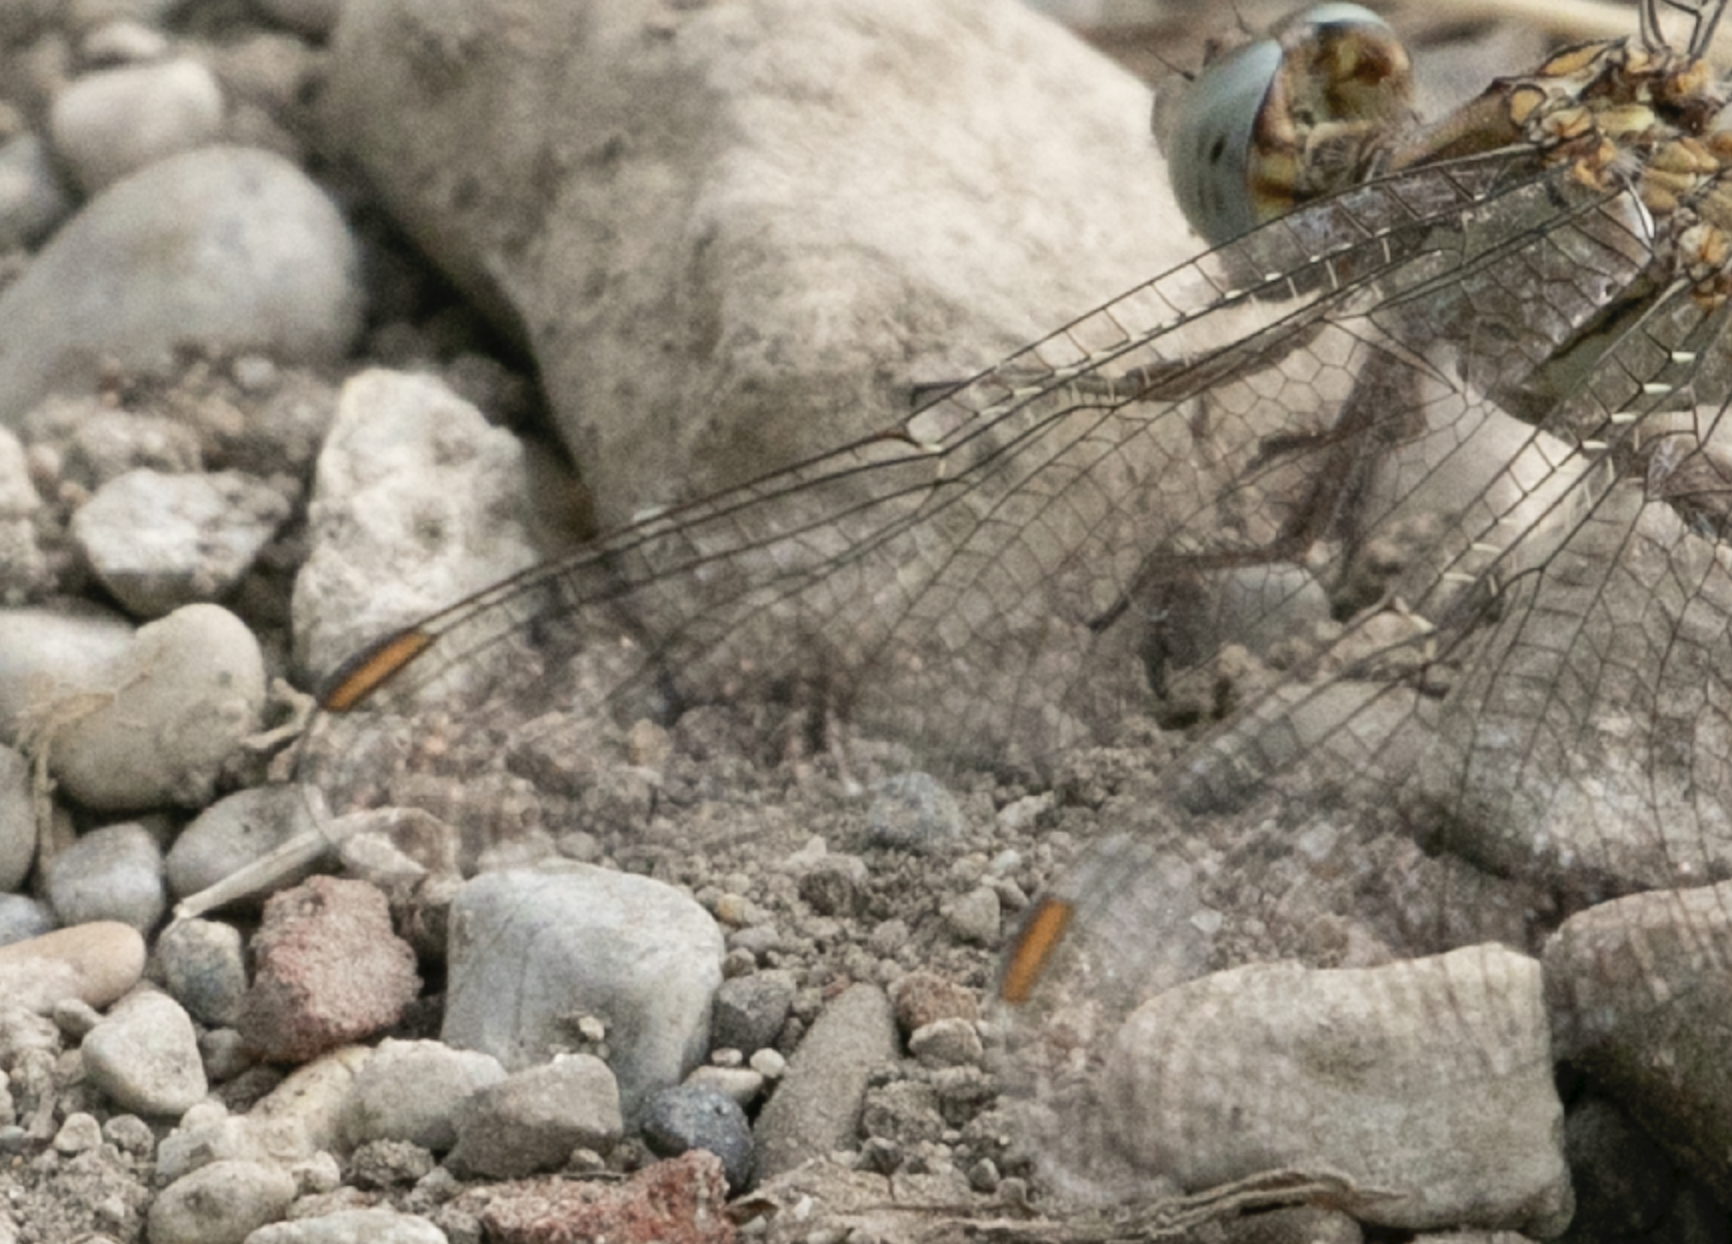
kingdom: Animalia
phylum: Arthropoda
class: Insecta
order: Odonata
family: Libellulidae
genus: Orthetrum
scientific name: Orthetrum brunneum
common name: Southern skimmer
